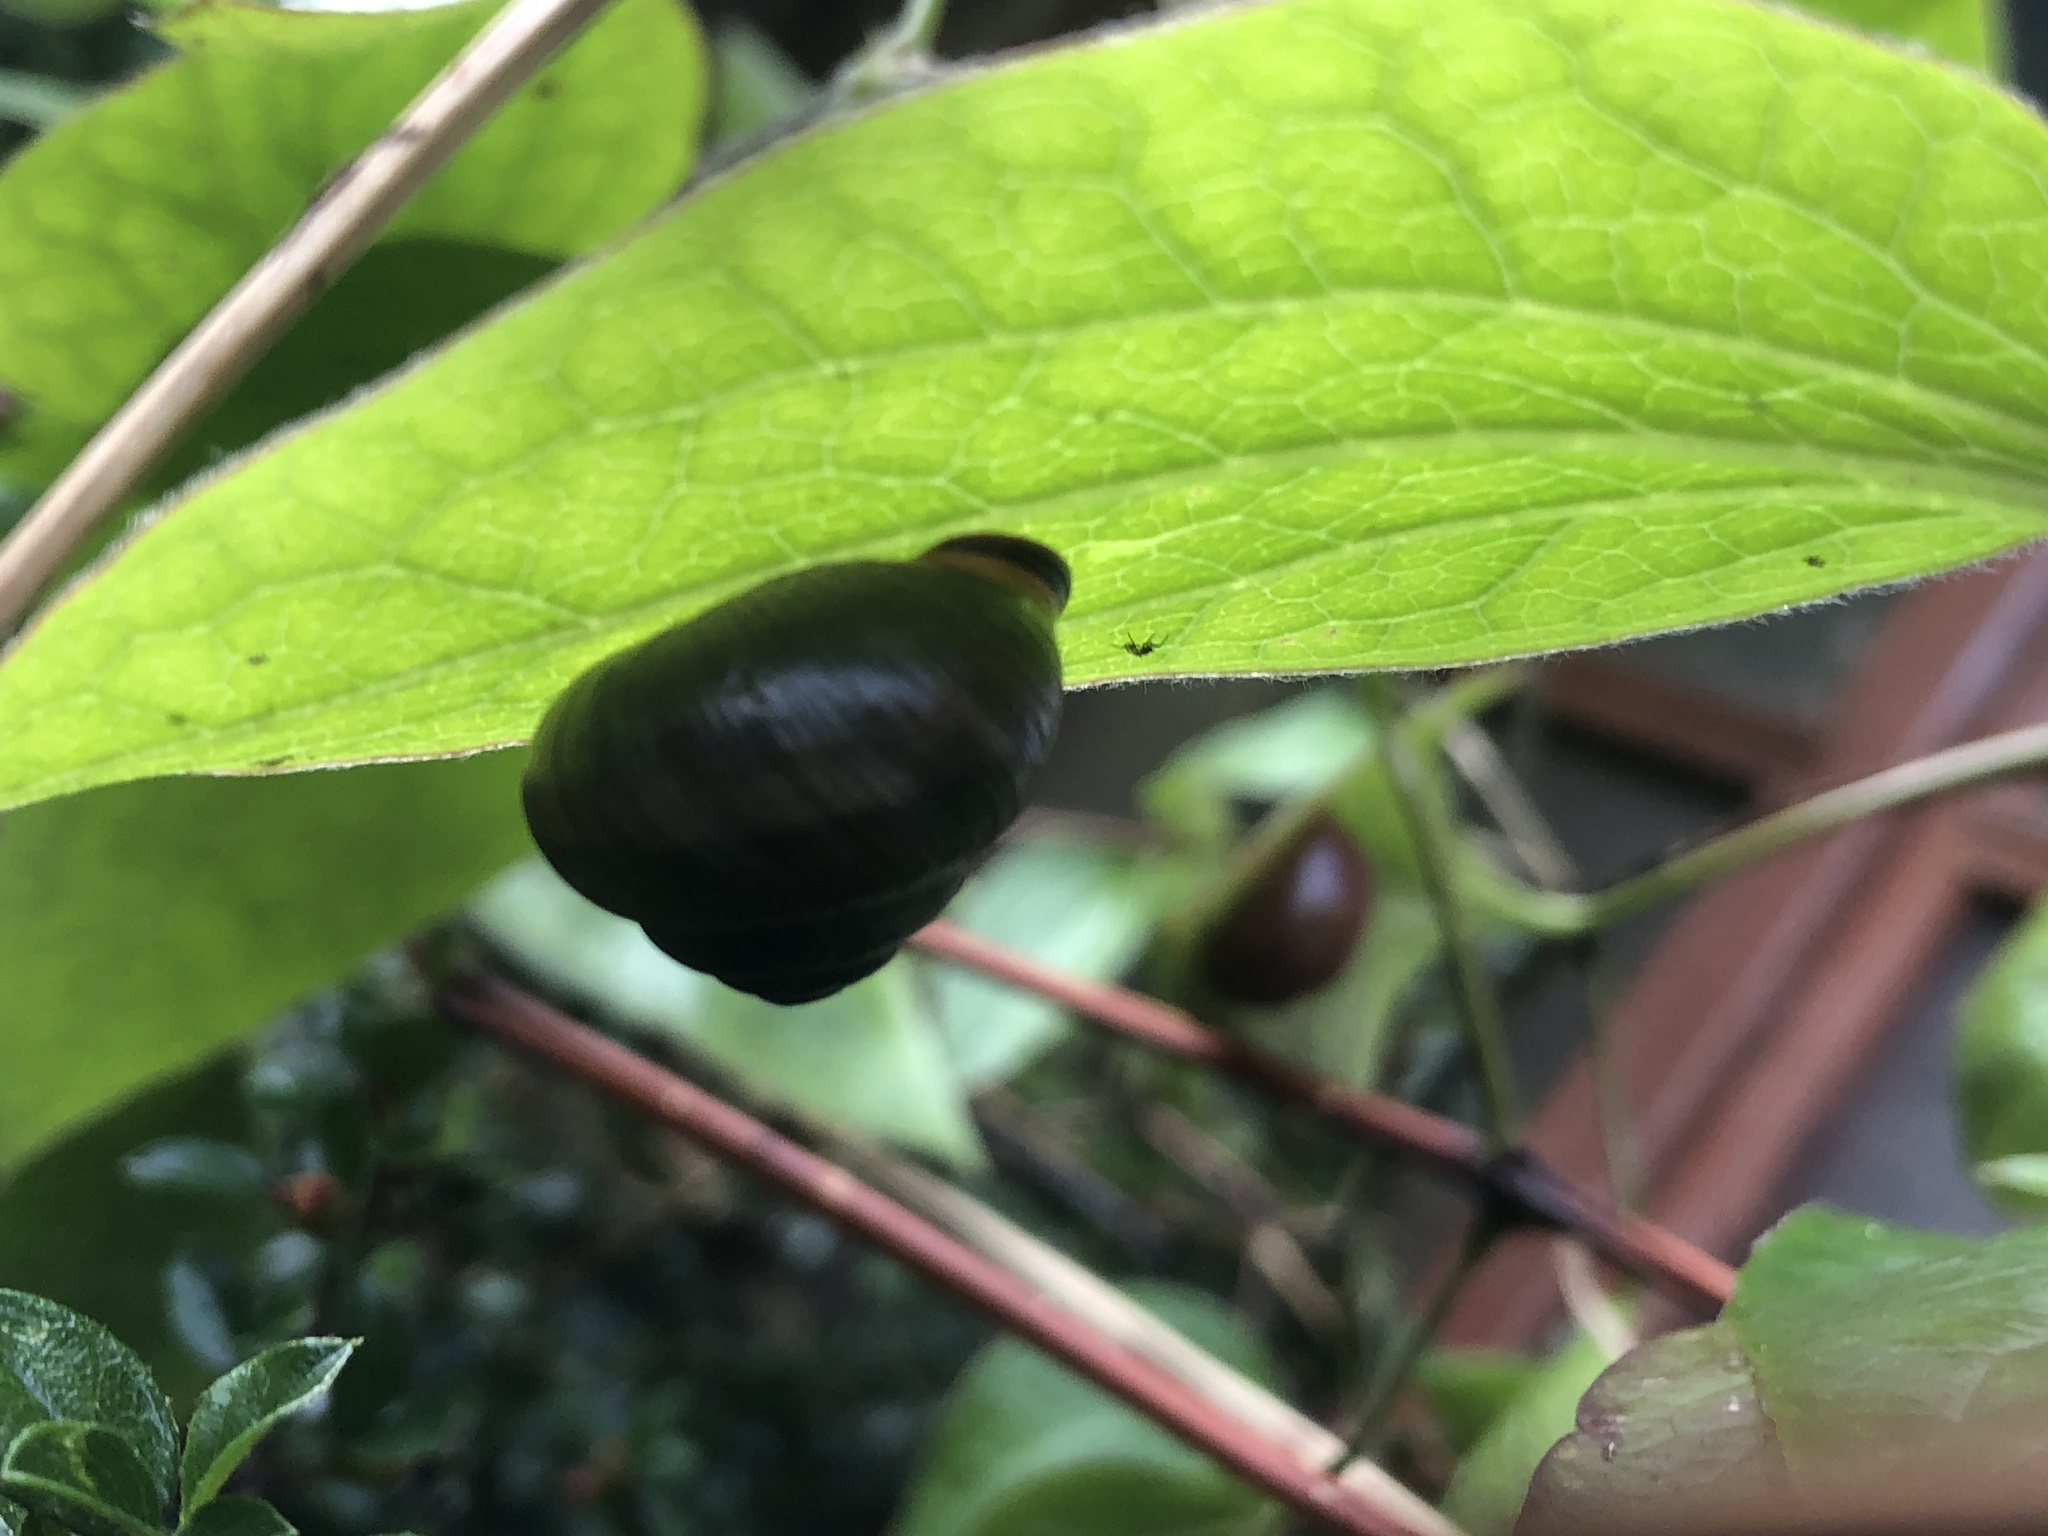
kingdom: Animalia
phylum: Mollusca
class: Gastropoda
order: Stylommatophora
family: Helicidae
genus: Cepaea
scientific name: Cepaea nemoralis
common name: Grovesnail
